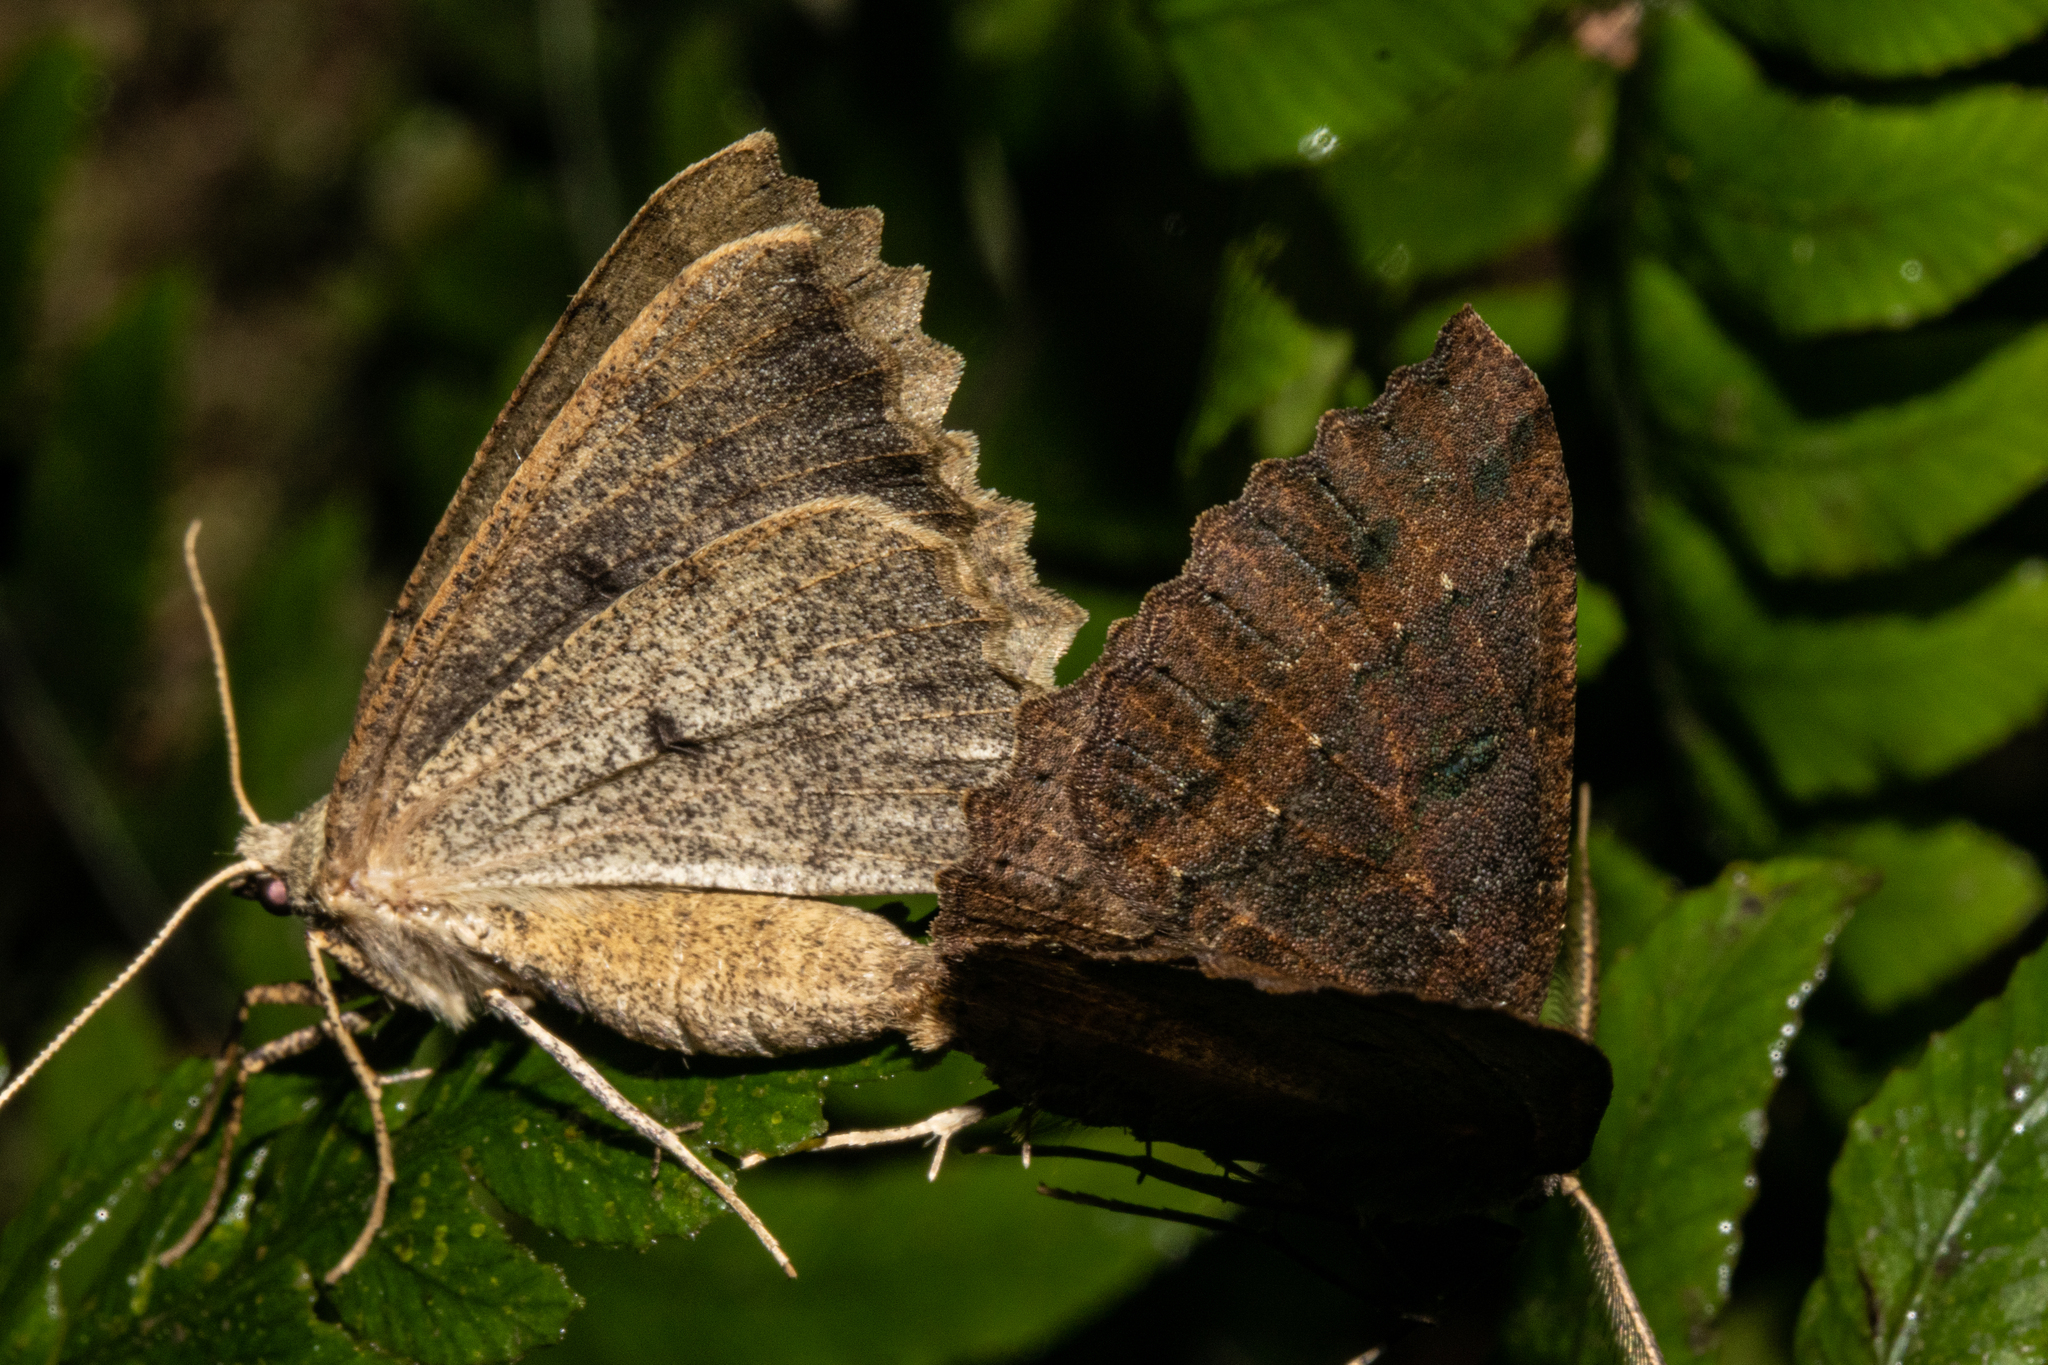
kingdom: Animalia
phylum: Arthropoda
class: Insecta
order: Lepidoptera
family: Geometridae
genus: Cleora
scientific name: Cleora scriptaria
